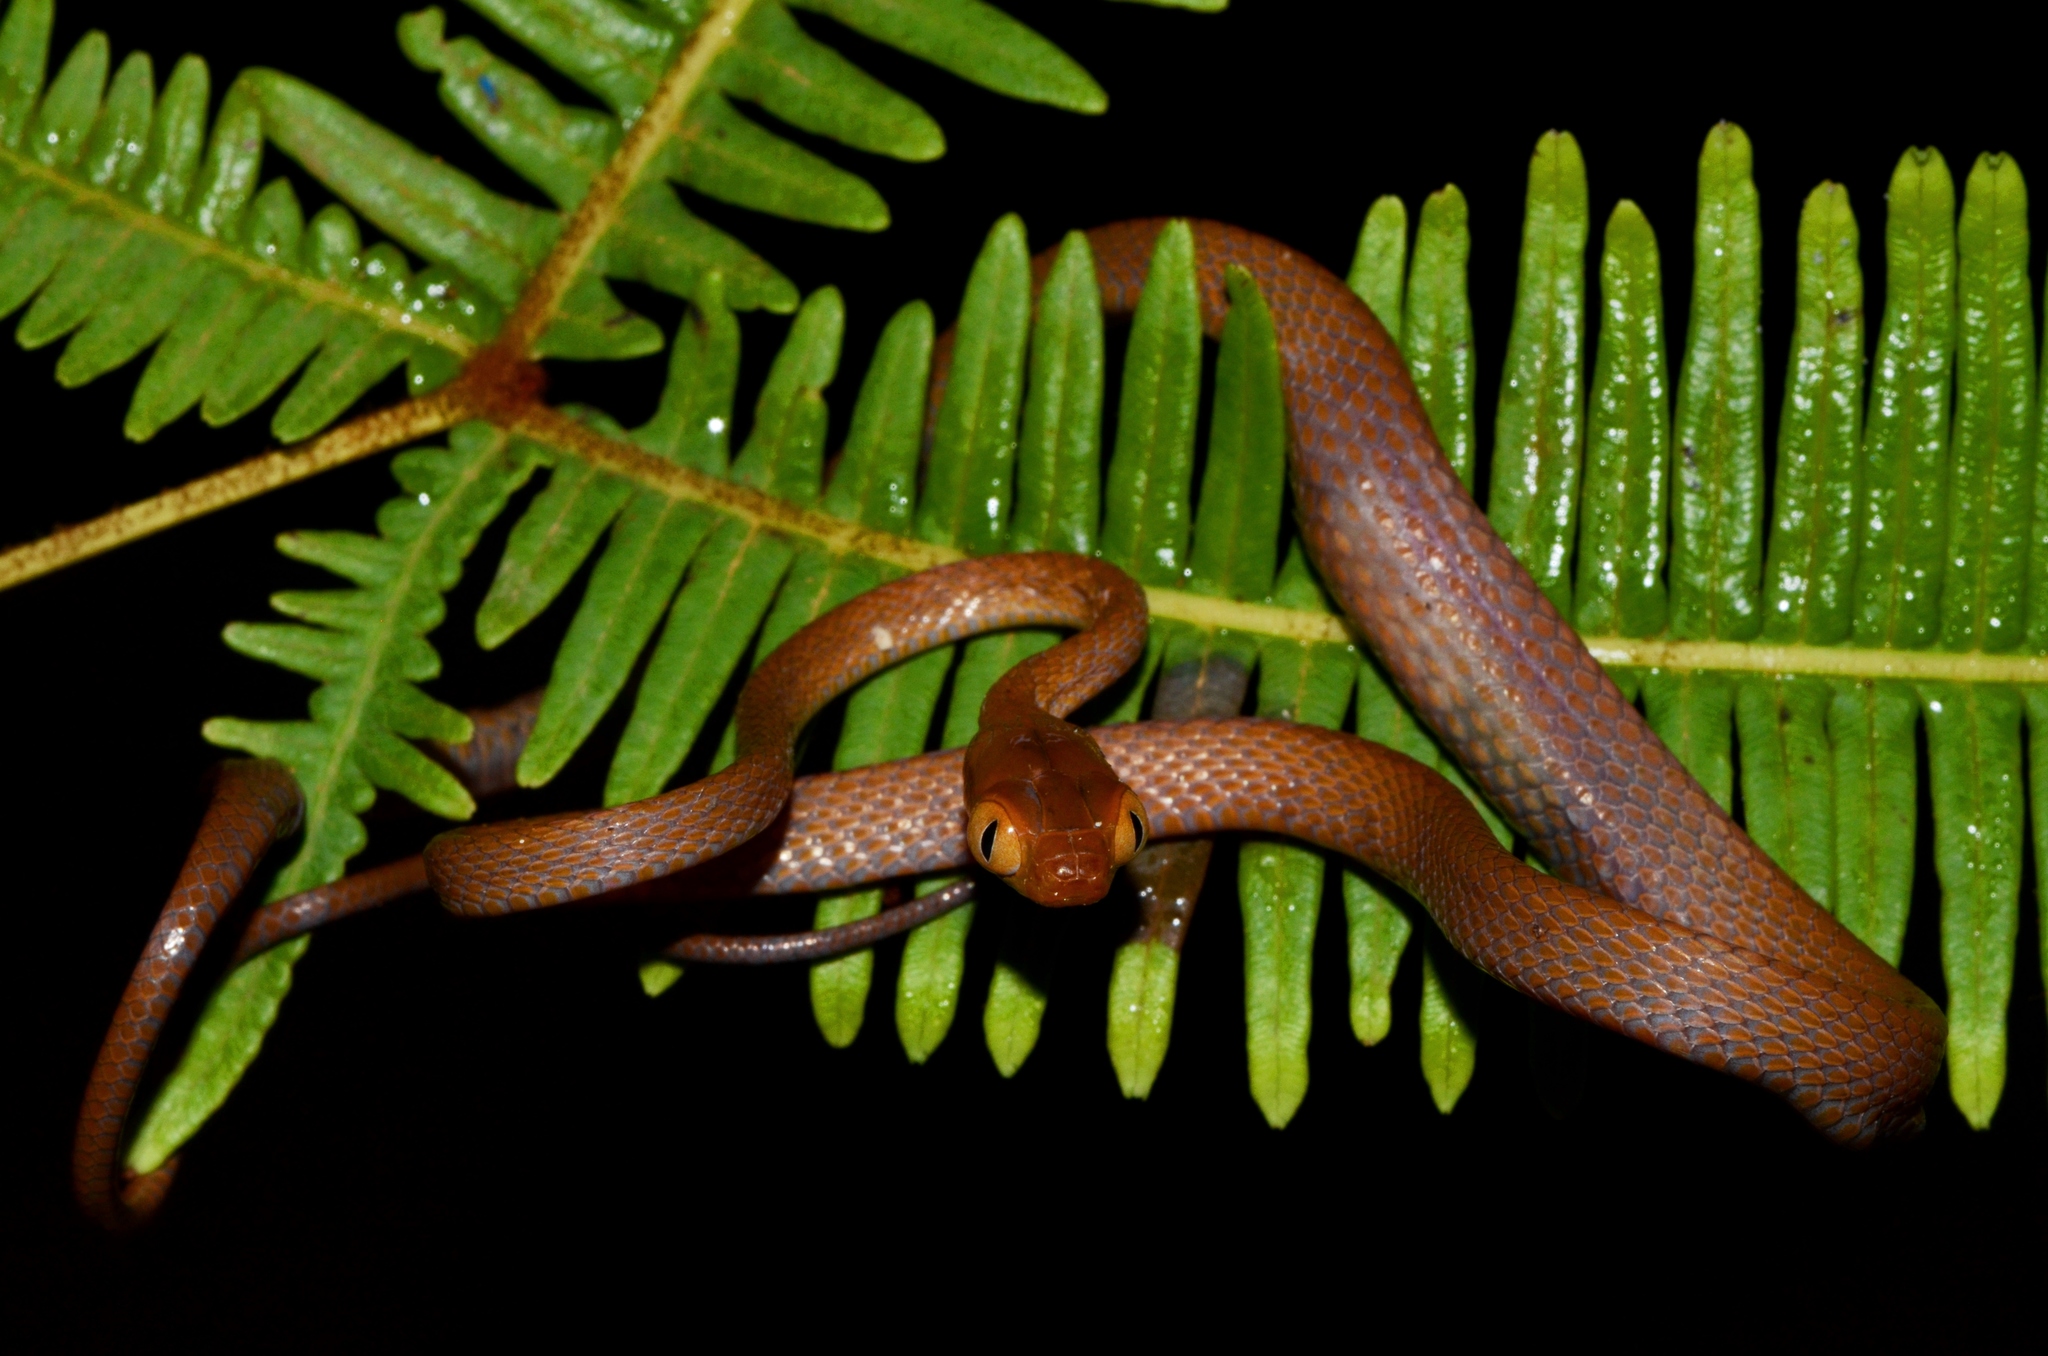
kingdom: Animalia
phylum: Chordata
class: Squamata
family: Colubridae
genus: Dipsadoboa
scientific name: Dipsadoboa duchesnii
